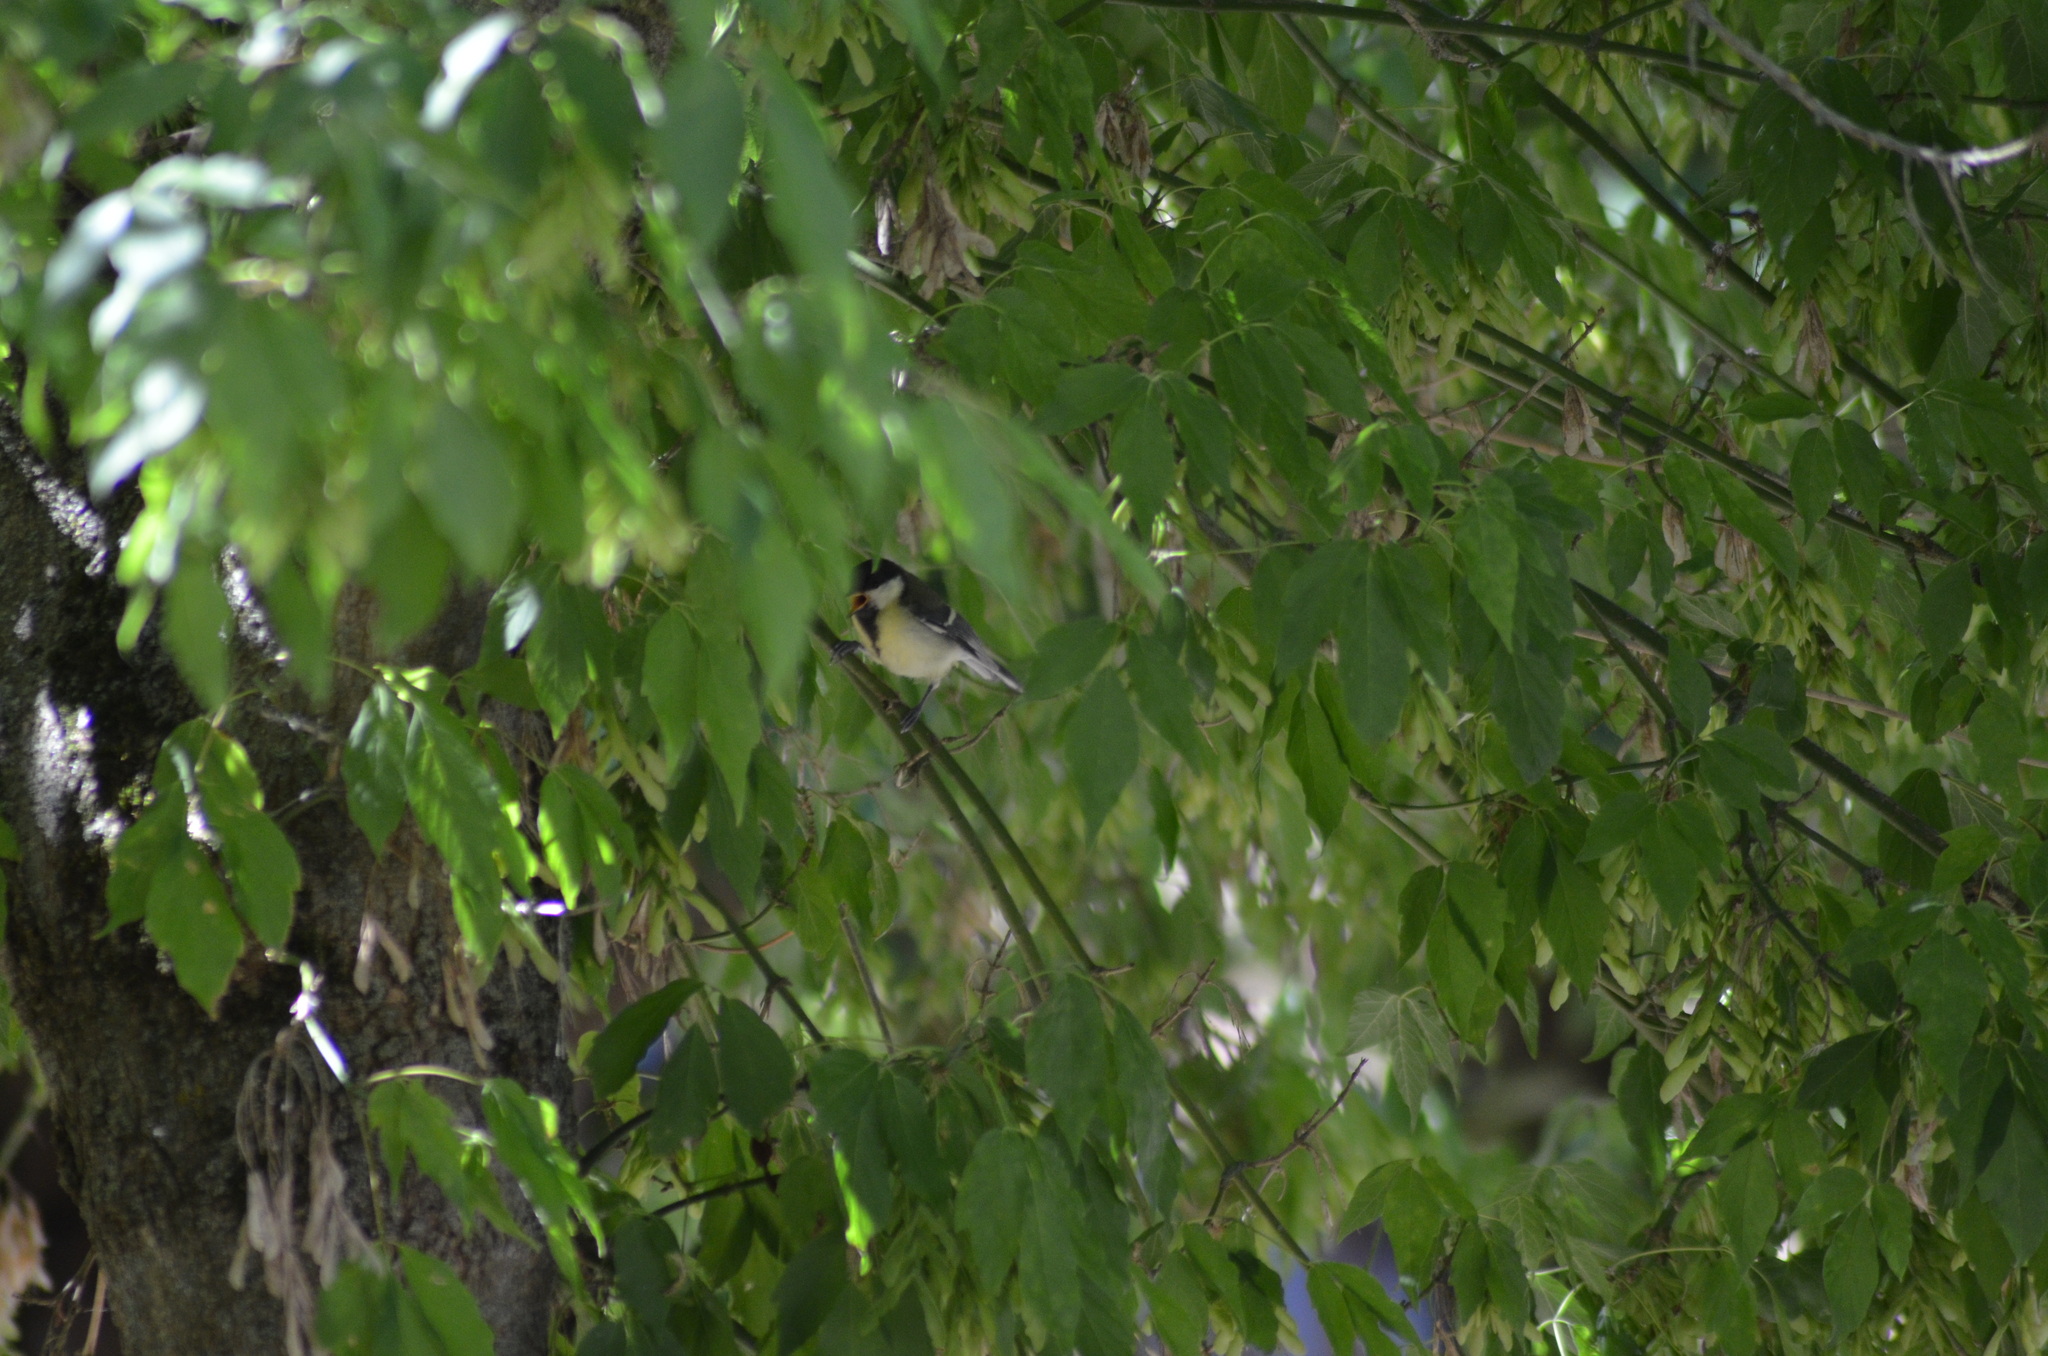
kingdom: Animalia
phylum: Chordata
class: Aves
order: Passeriformes
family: Paridae
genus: Parus
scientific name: Parus major
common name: Great tit
